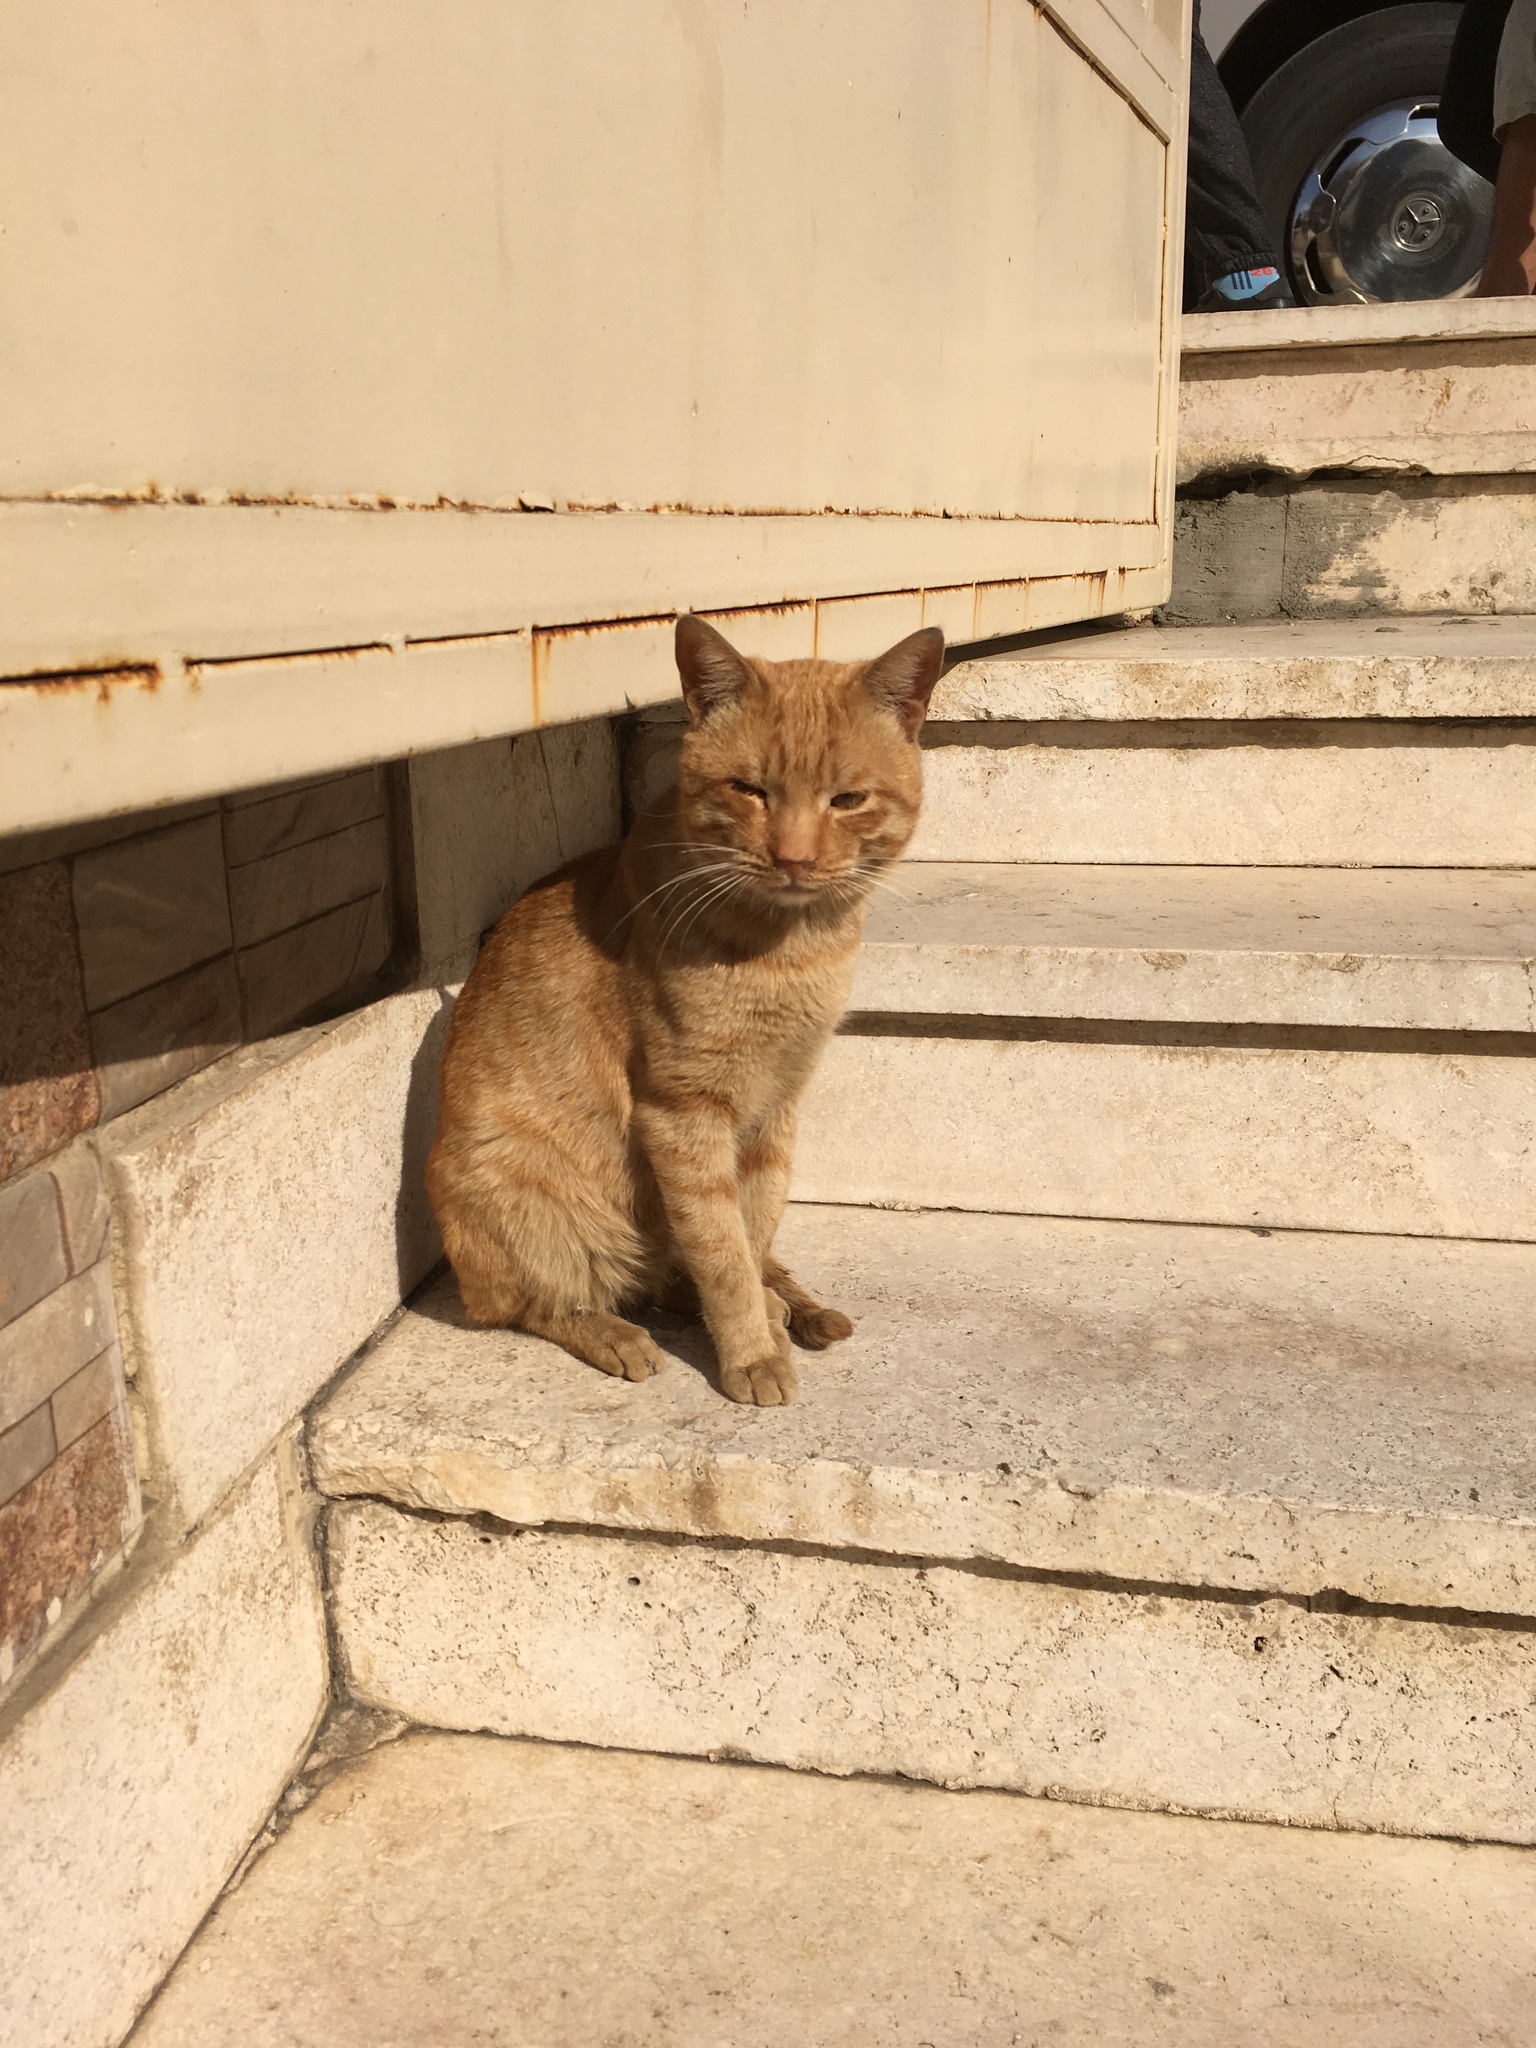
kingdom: Animalia
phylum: Chordata
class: Mammalia
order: Carnivora
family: Felidae
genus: Felis
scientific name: Felis catus
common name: Domestic cat
